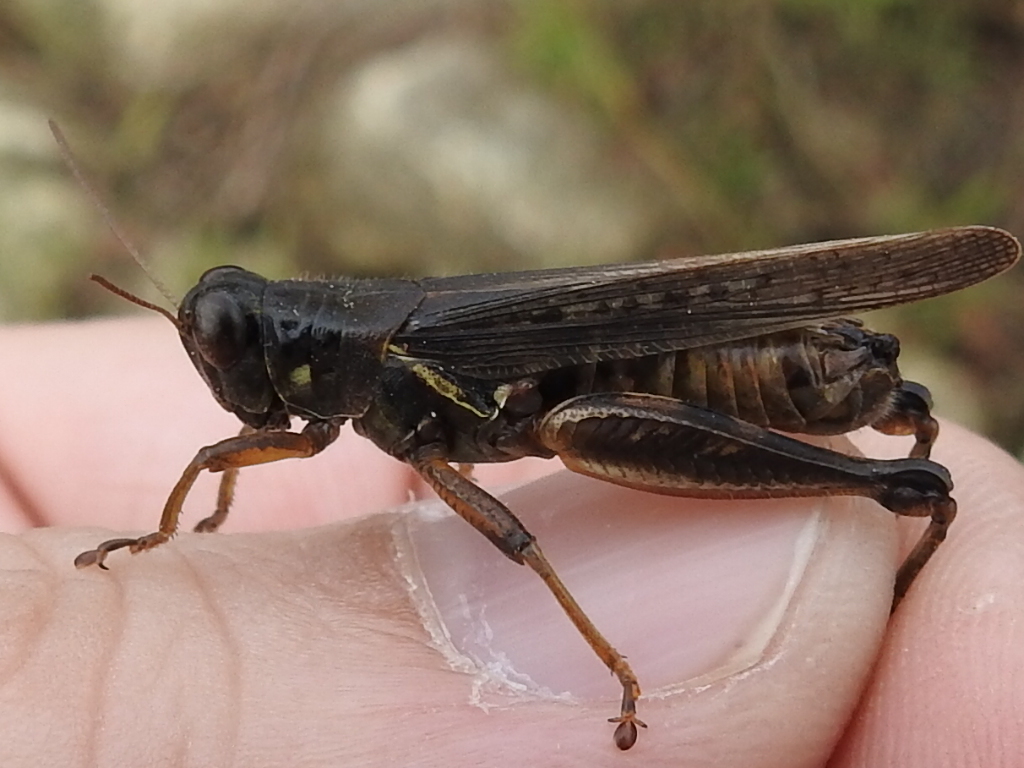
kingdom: Animalia
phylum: Arthropoda
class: Insecta
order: Orthoptera
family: Acrididae
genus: Melanoplus
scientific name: Melanoplus femurrubrum
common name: Red-legged grasshopper
